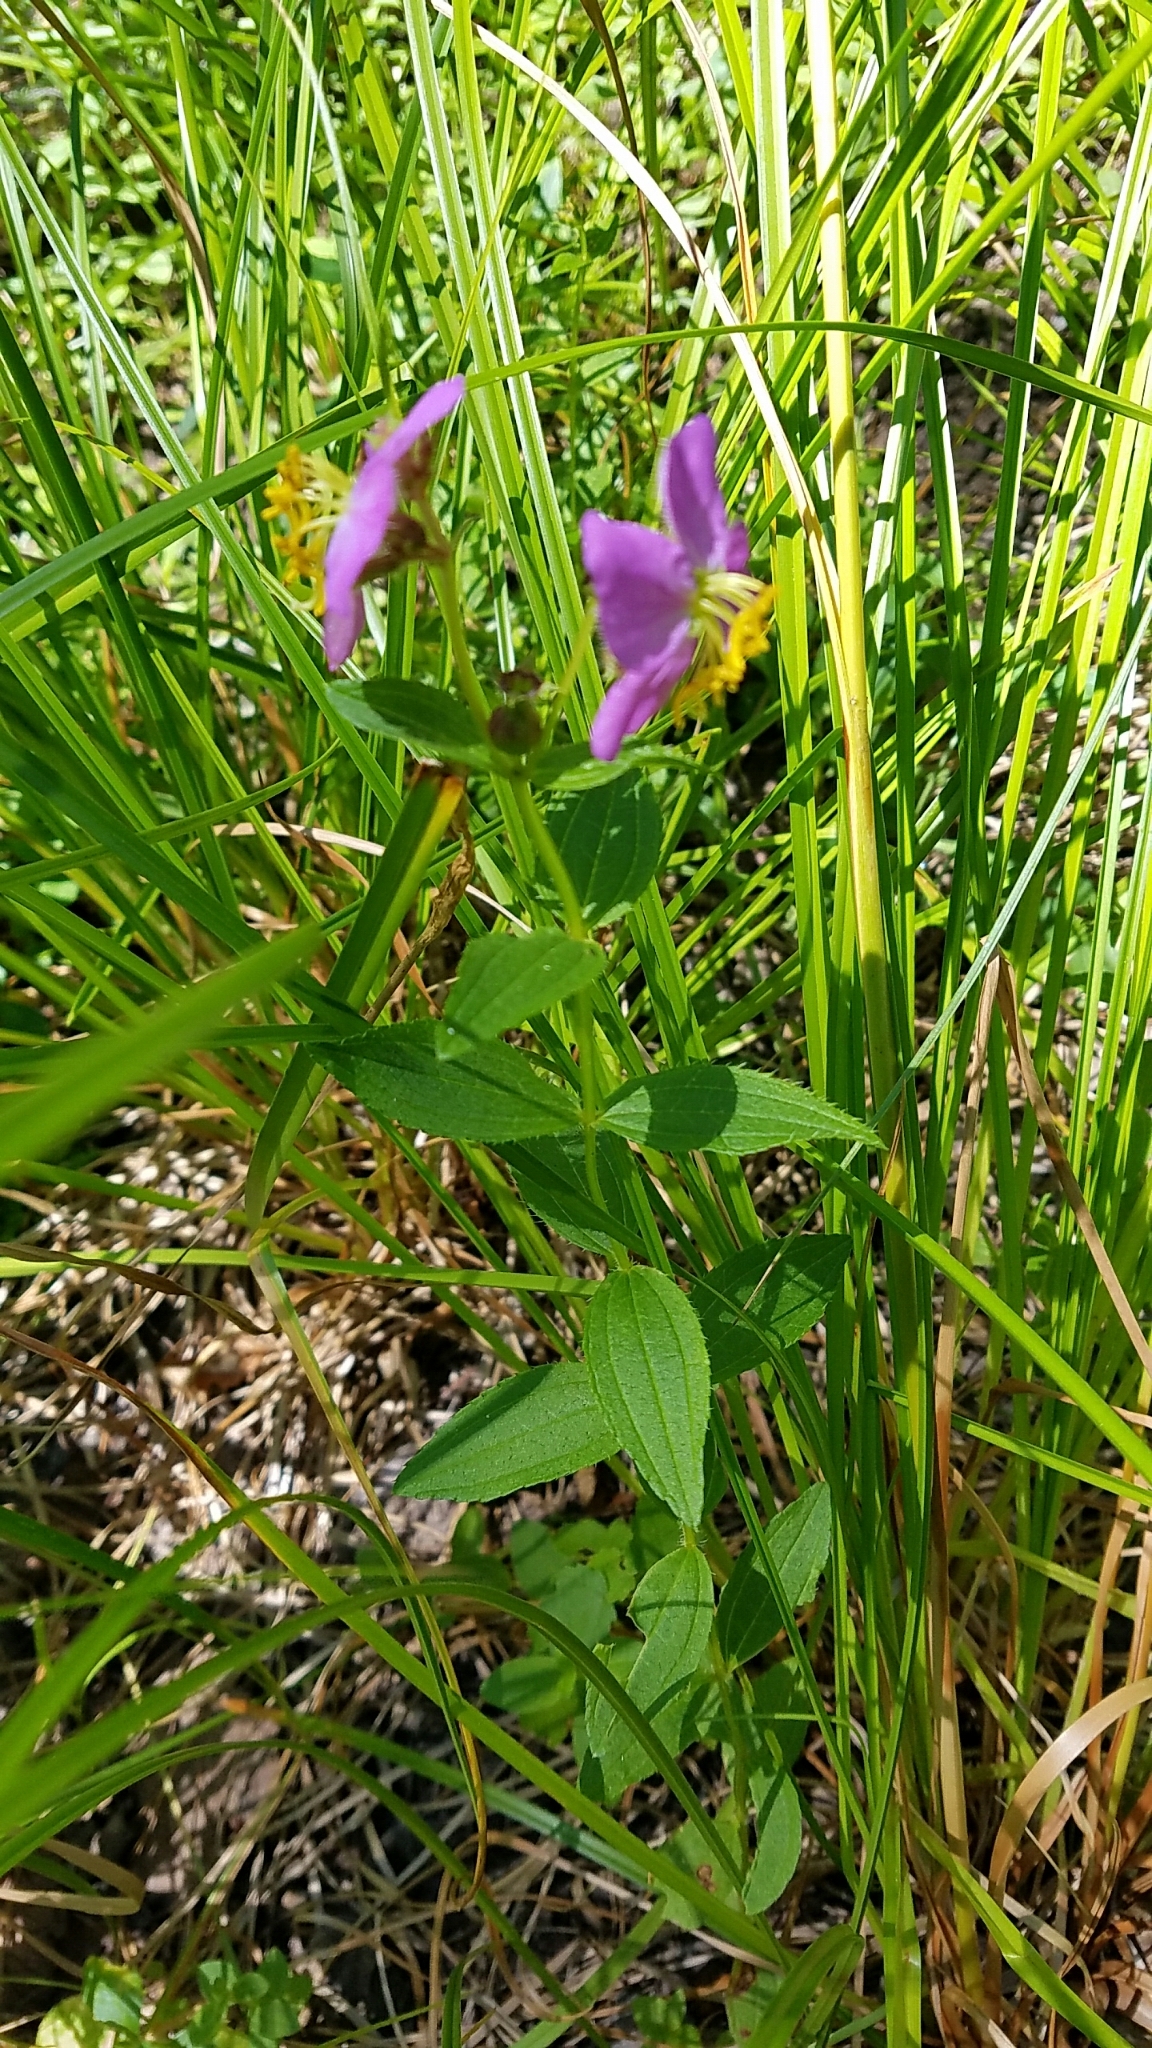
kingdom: Plantae
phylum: Tracheophyta
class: Magnoliopsida
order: Myrtales
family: Melastomataceae
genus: Rhexia
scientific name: Rhexia virginica
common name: Common meadow beauty
